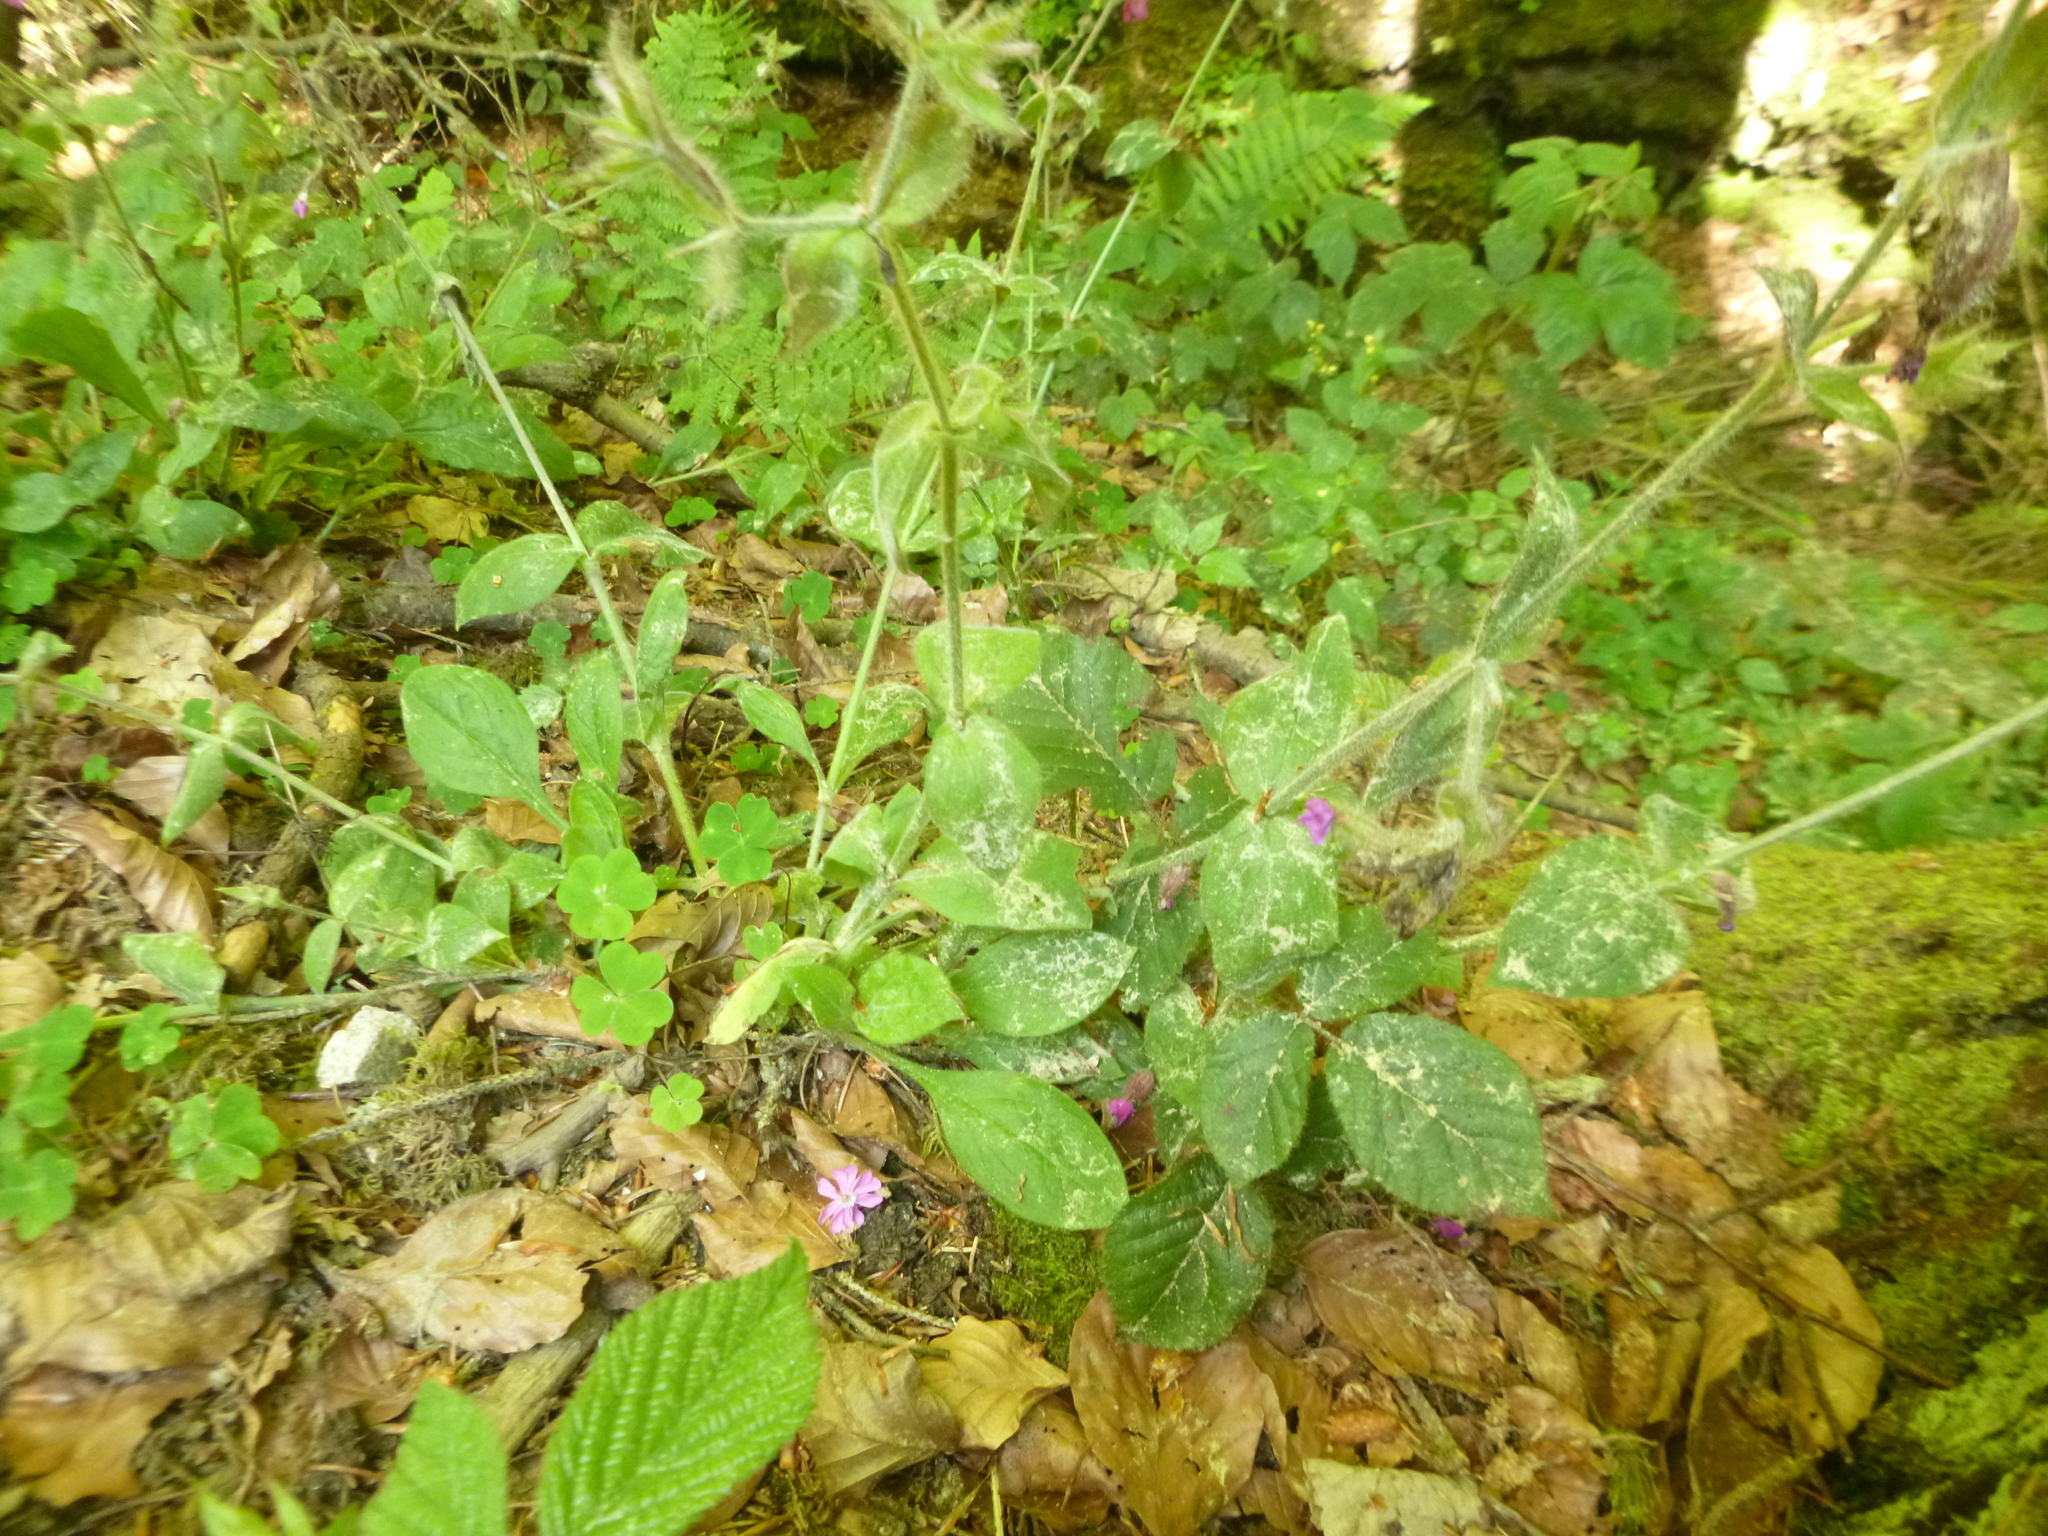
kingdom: Plantae
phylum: Tracheophyta
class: Magnoliopsida
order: Caryophyllales
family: Caryophyllaceae
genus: Silene
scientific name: Silene dioica
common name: Red campion
